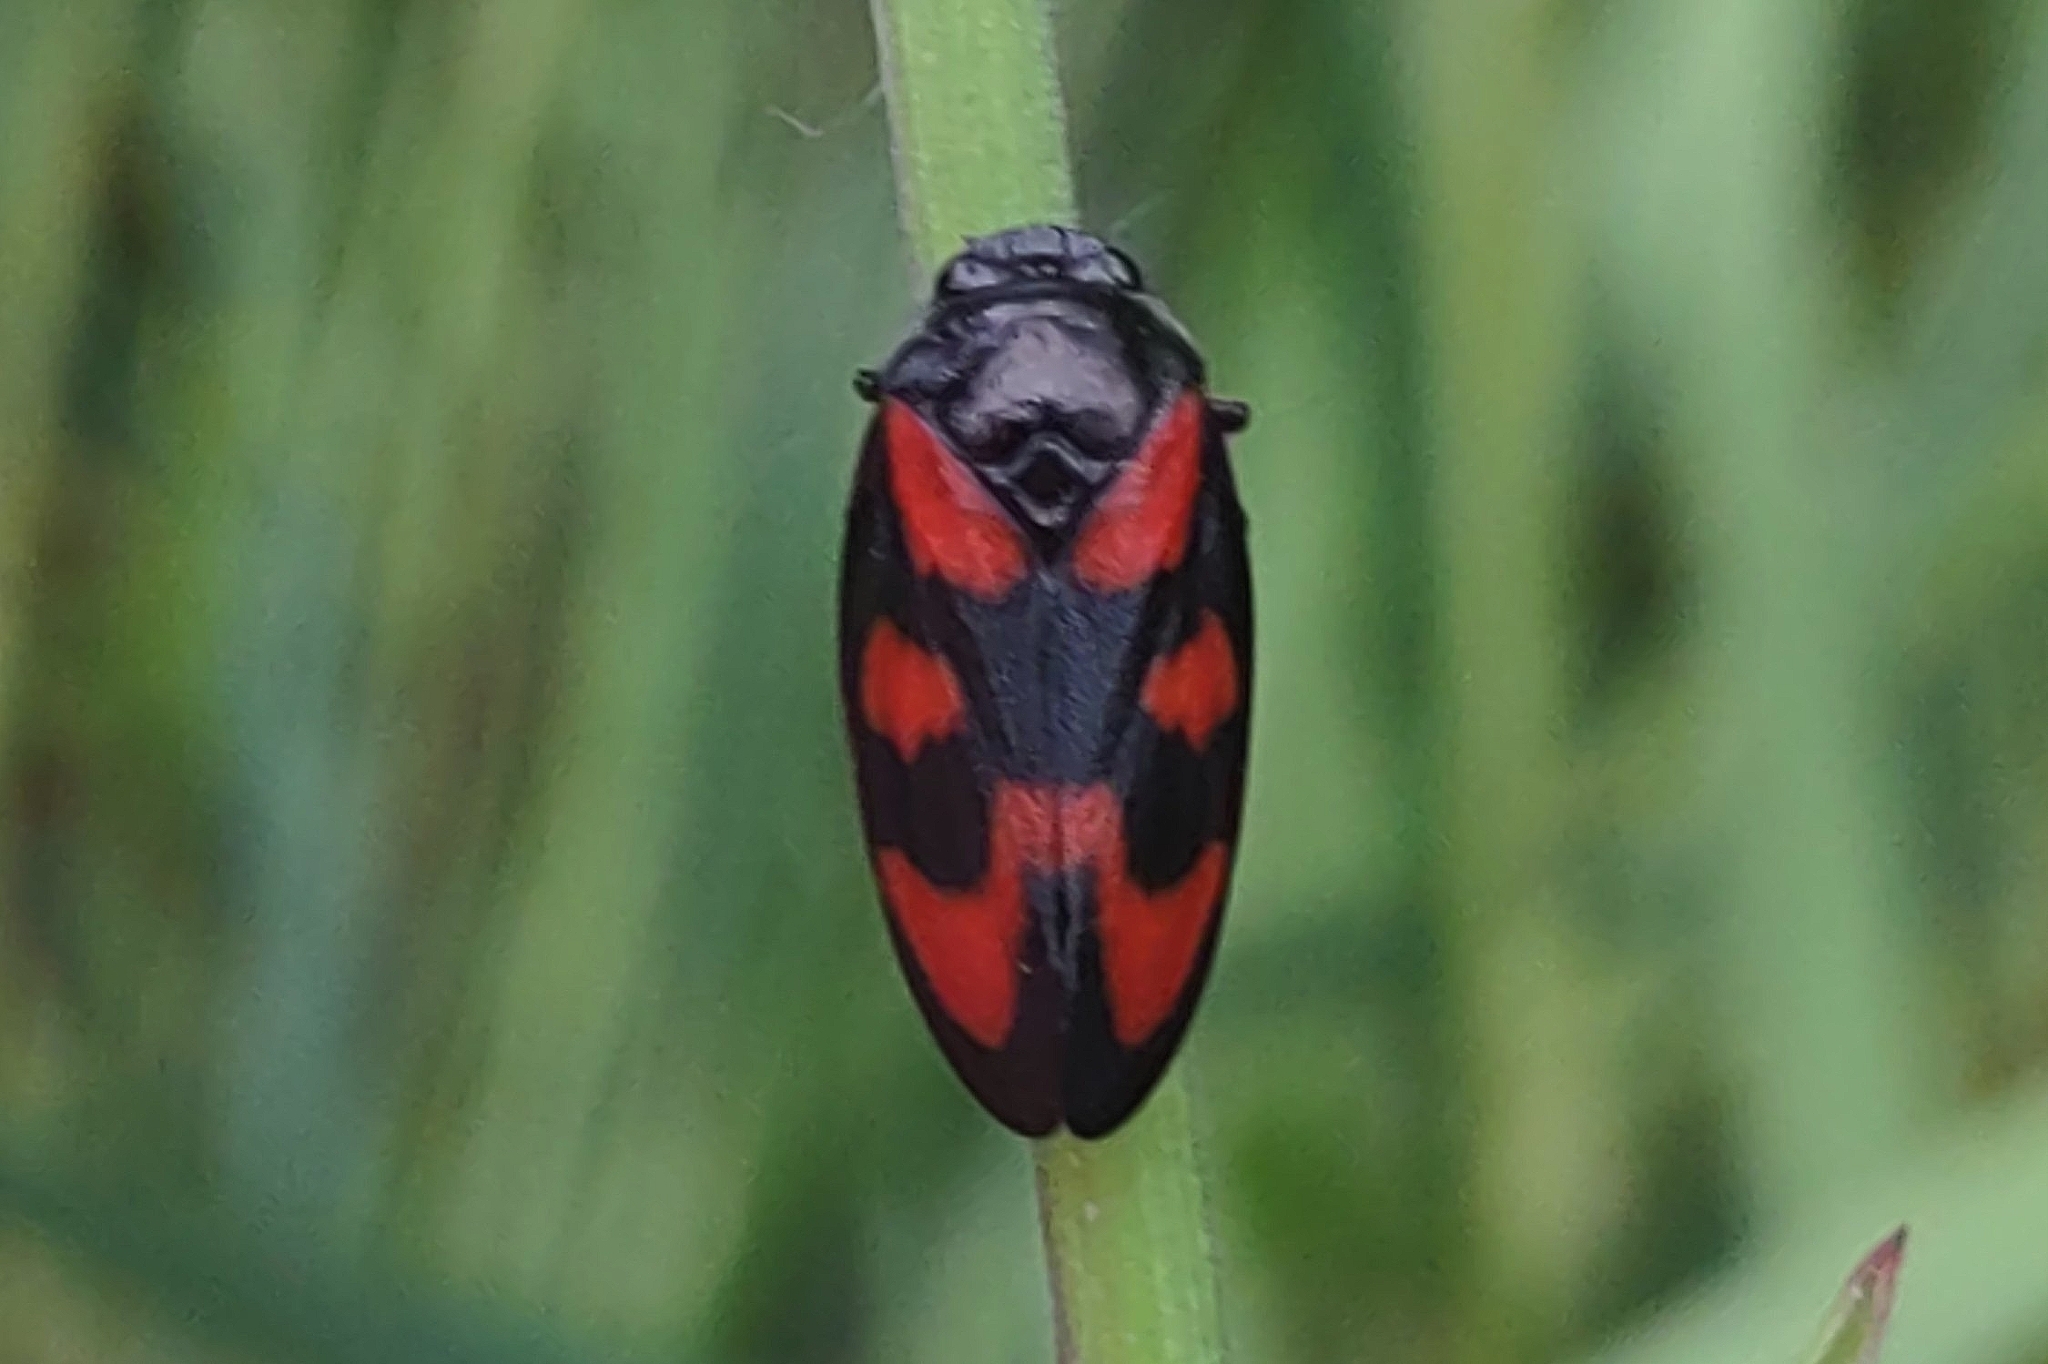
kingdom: Animalia
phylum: Arthropoda
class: Insecta
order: Hemiptera
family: Cercopidae
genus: Cercopis
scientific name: Cercopis vulnerata
